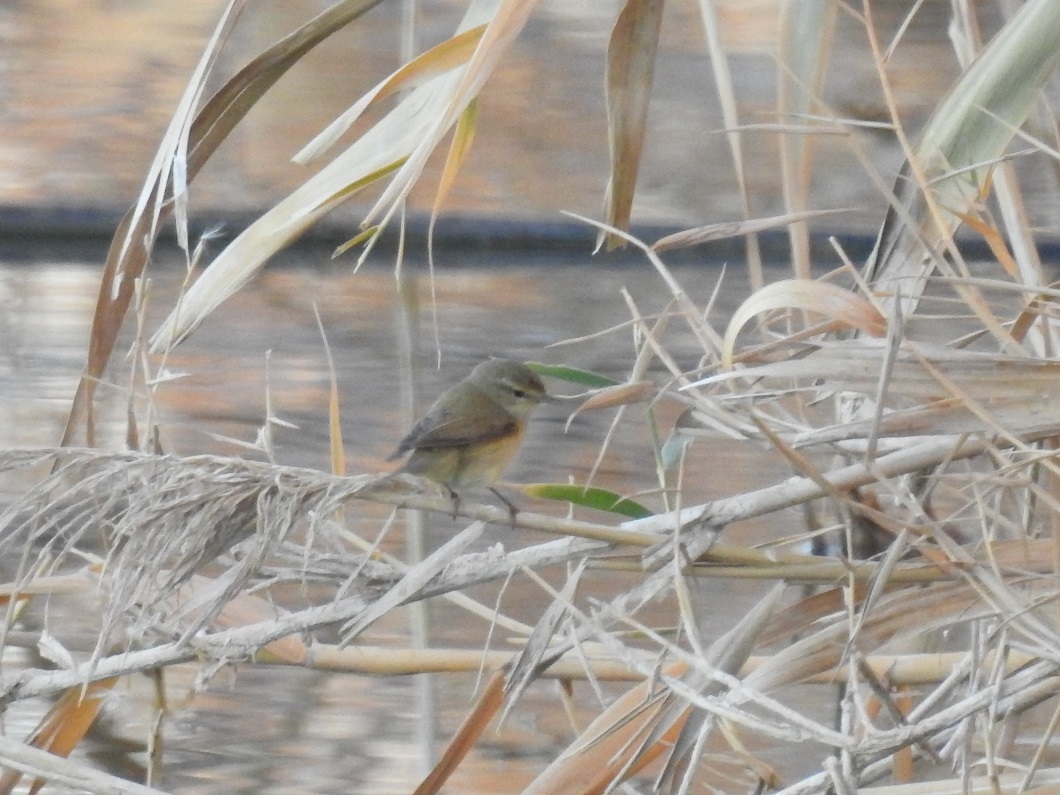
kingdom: Animalia
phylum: Chordata
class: Aves
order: Passeriformes
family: Phylloscopidae
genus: Phylloscopus
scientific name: Phylloscopus collybita
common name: Common chiffchaff
